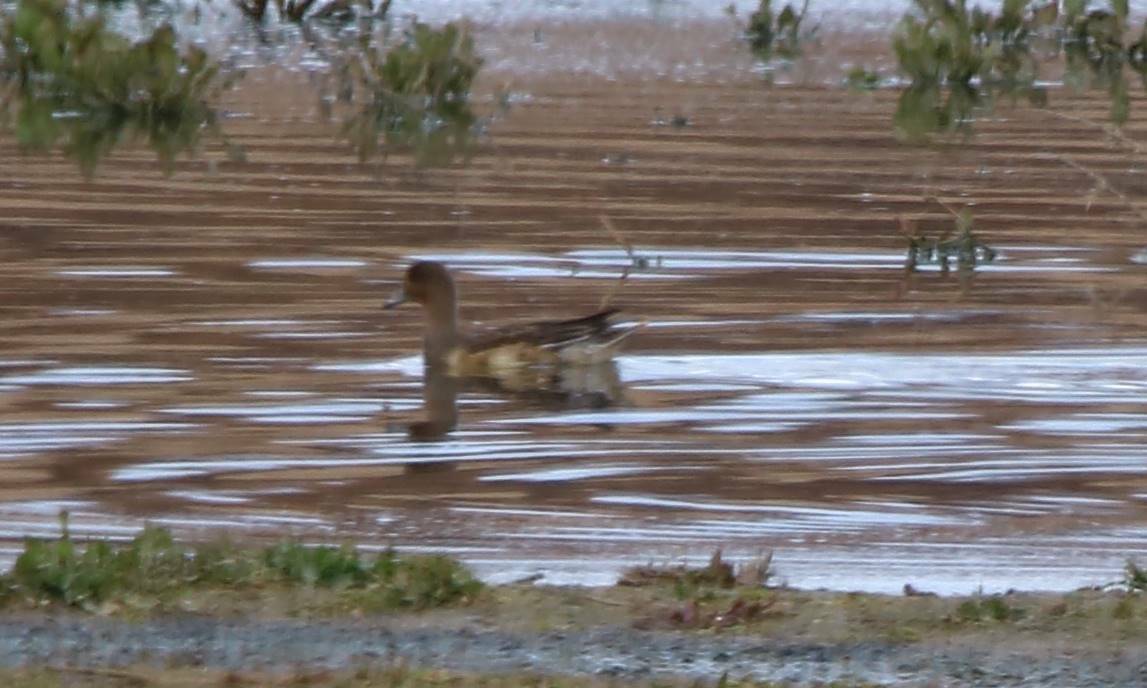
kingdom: Animalia
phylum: Chordata
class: Aves
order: Anseriformes
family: Anatidae
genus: Mareca
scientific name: Mareca penelope
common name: Eurasian wigeon
